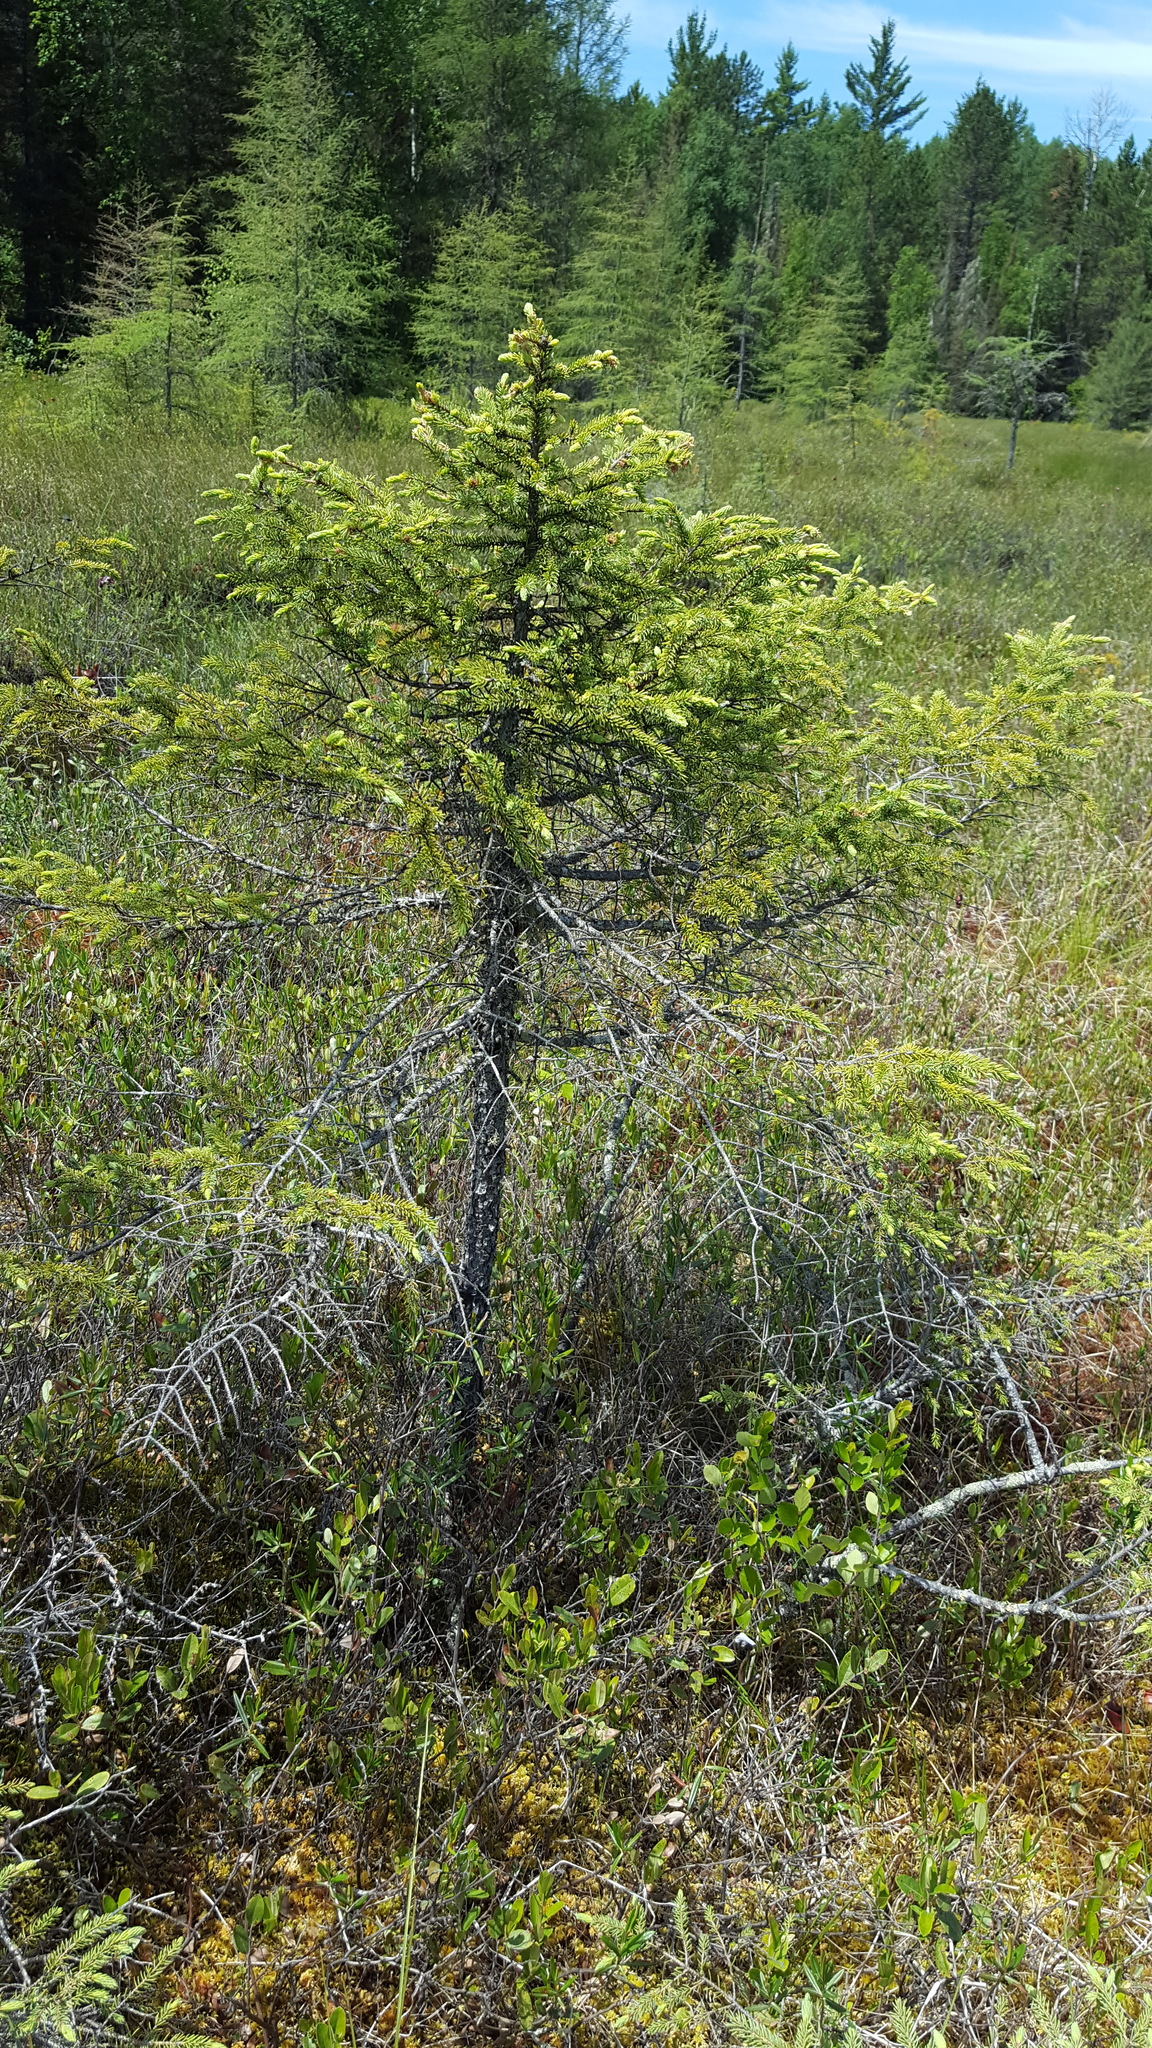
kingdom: Plantae
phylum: Tracheophyta
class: Pinopsida
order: Pinales
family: Pinaceae
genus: Picea
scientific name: Picea mariana
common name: Black spruce
